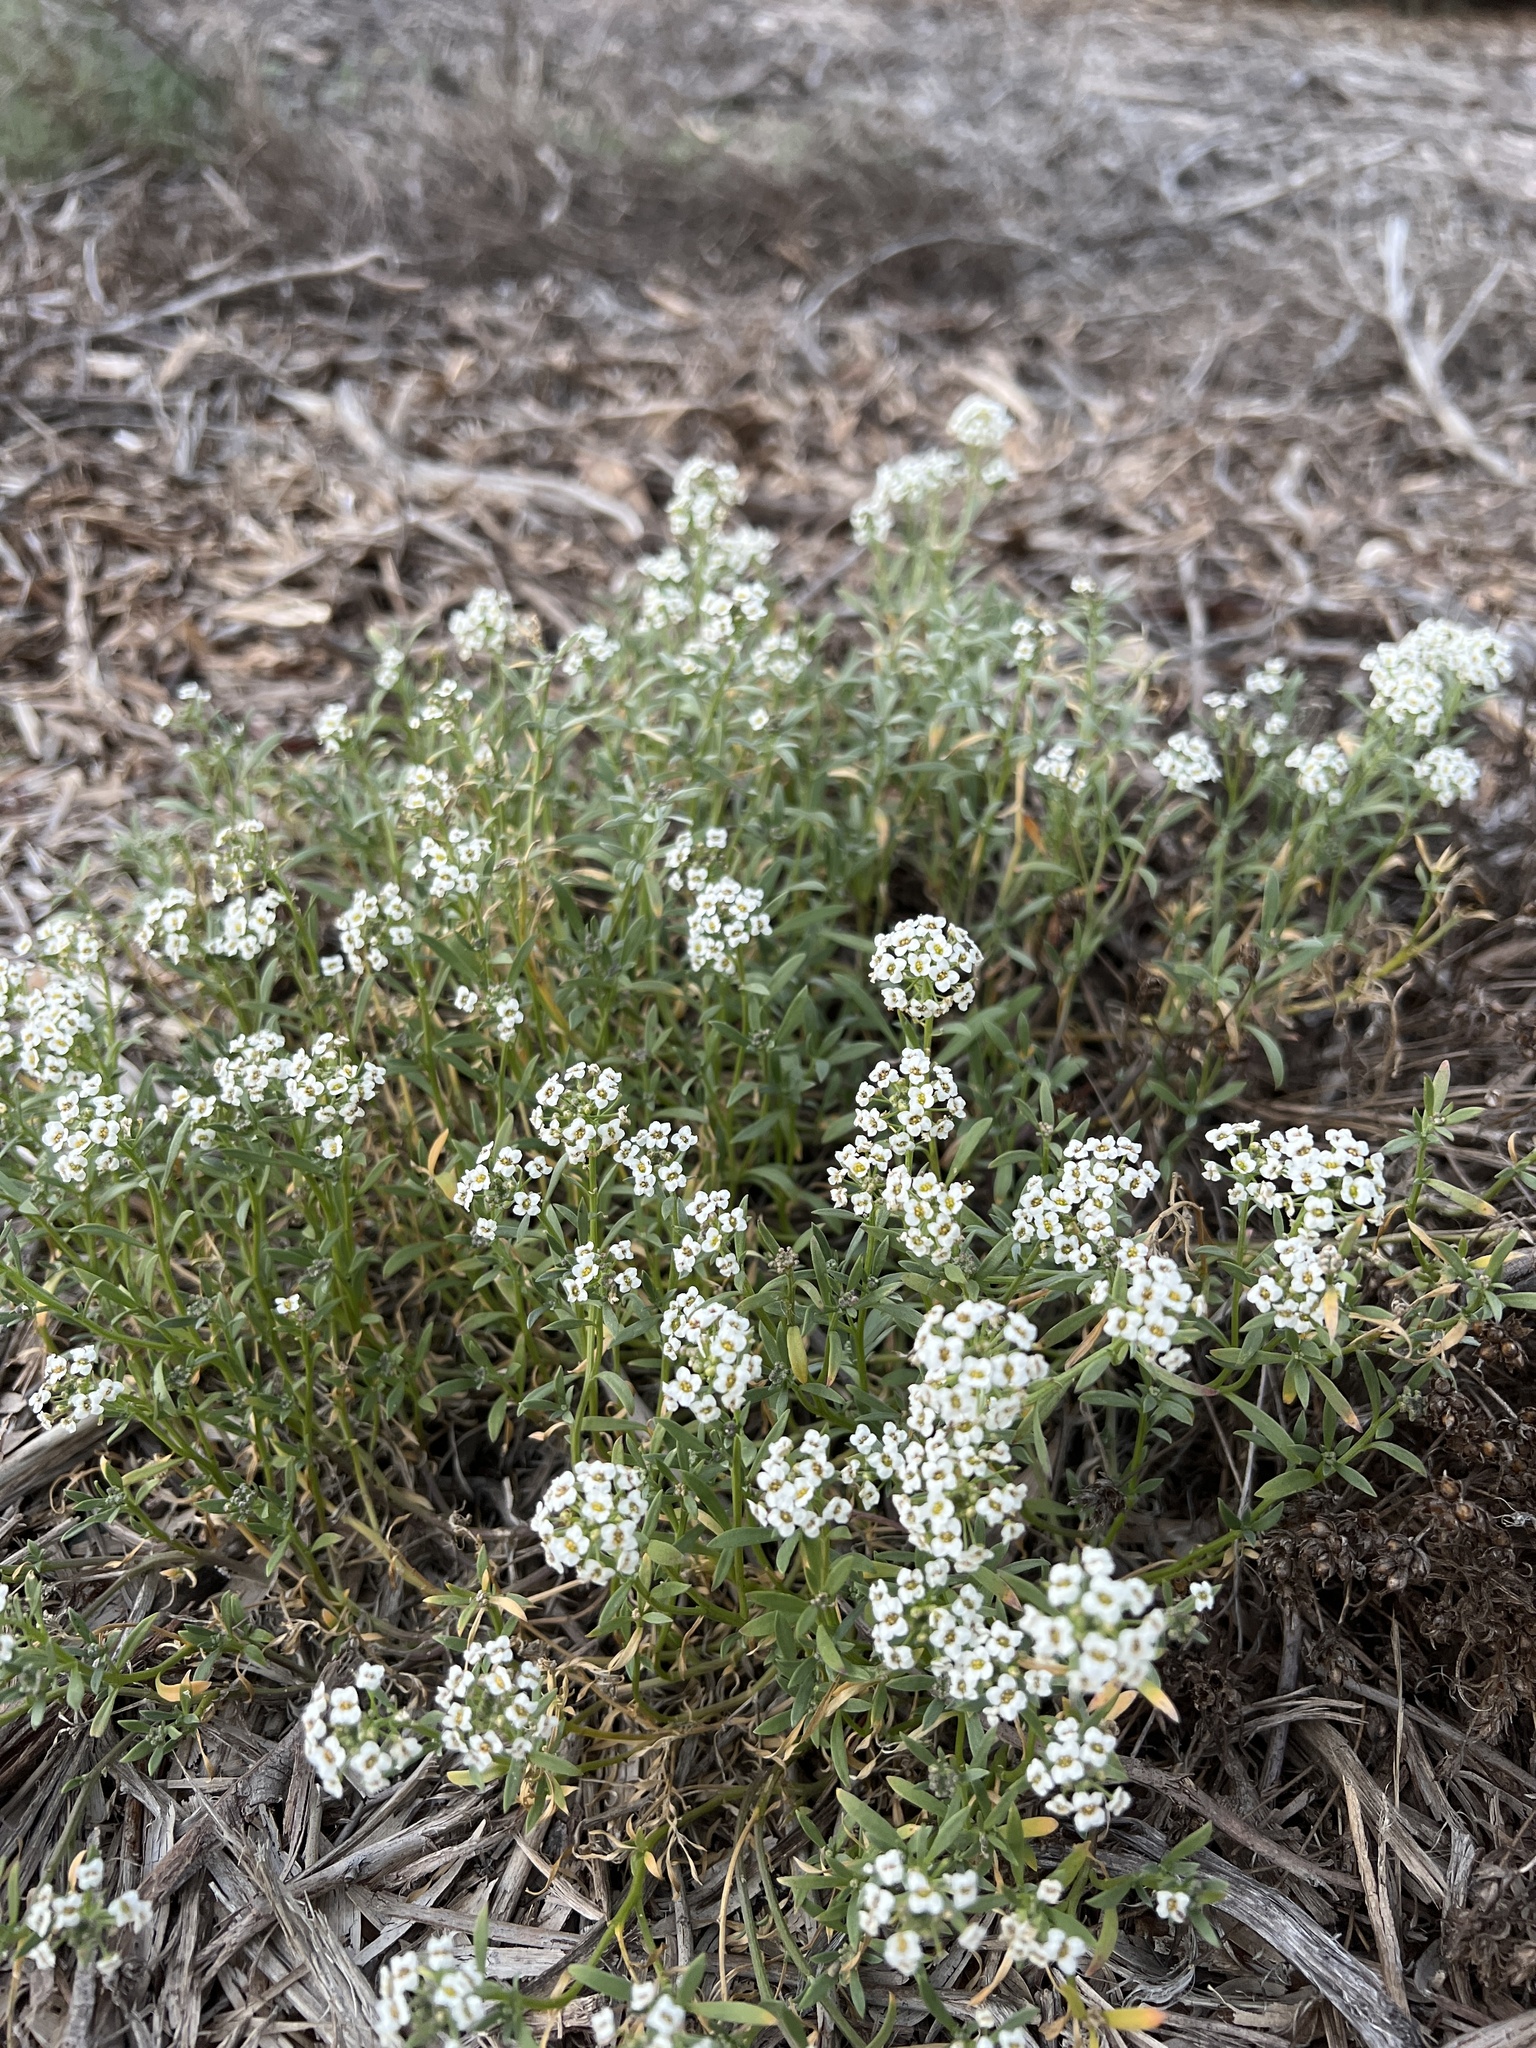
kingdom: Plantae
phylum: Tracheophyta
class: Magnoliopsida
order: Brassicales
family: Brassicaceae
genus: Lobularia
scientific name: Lobularia maritima
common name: Sweet alison
